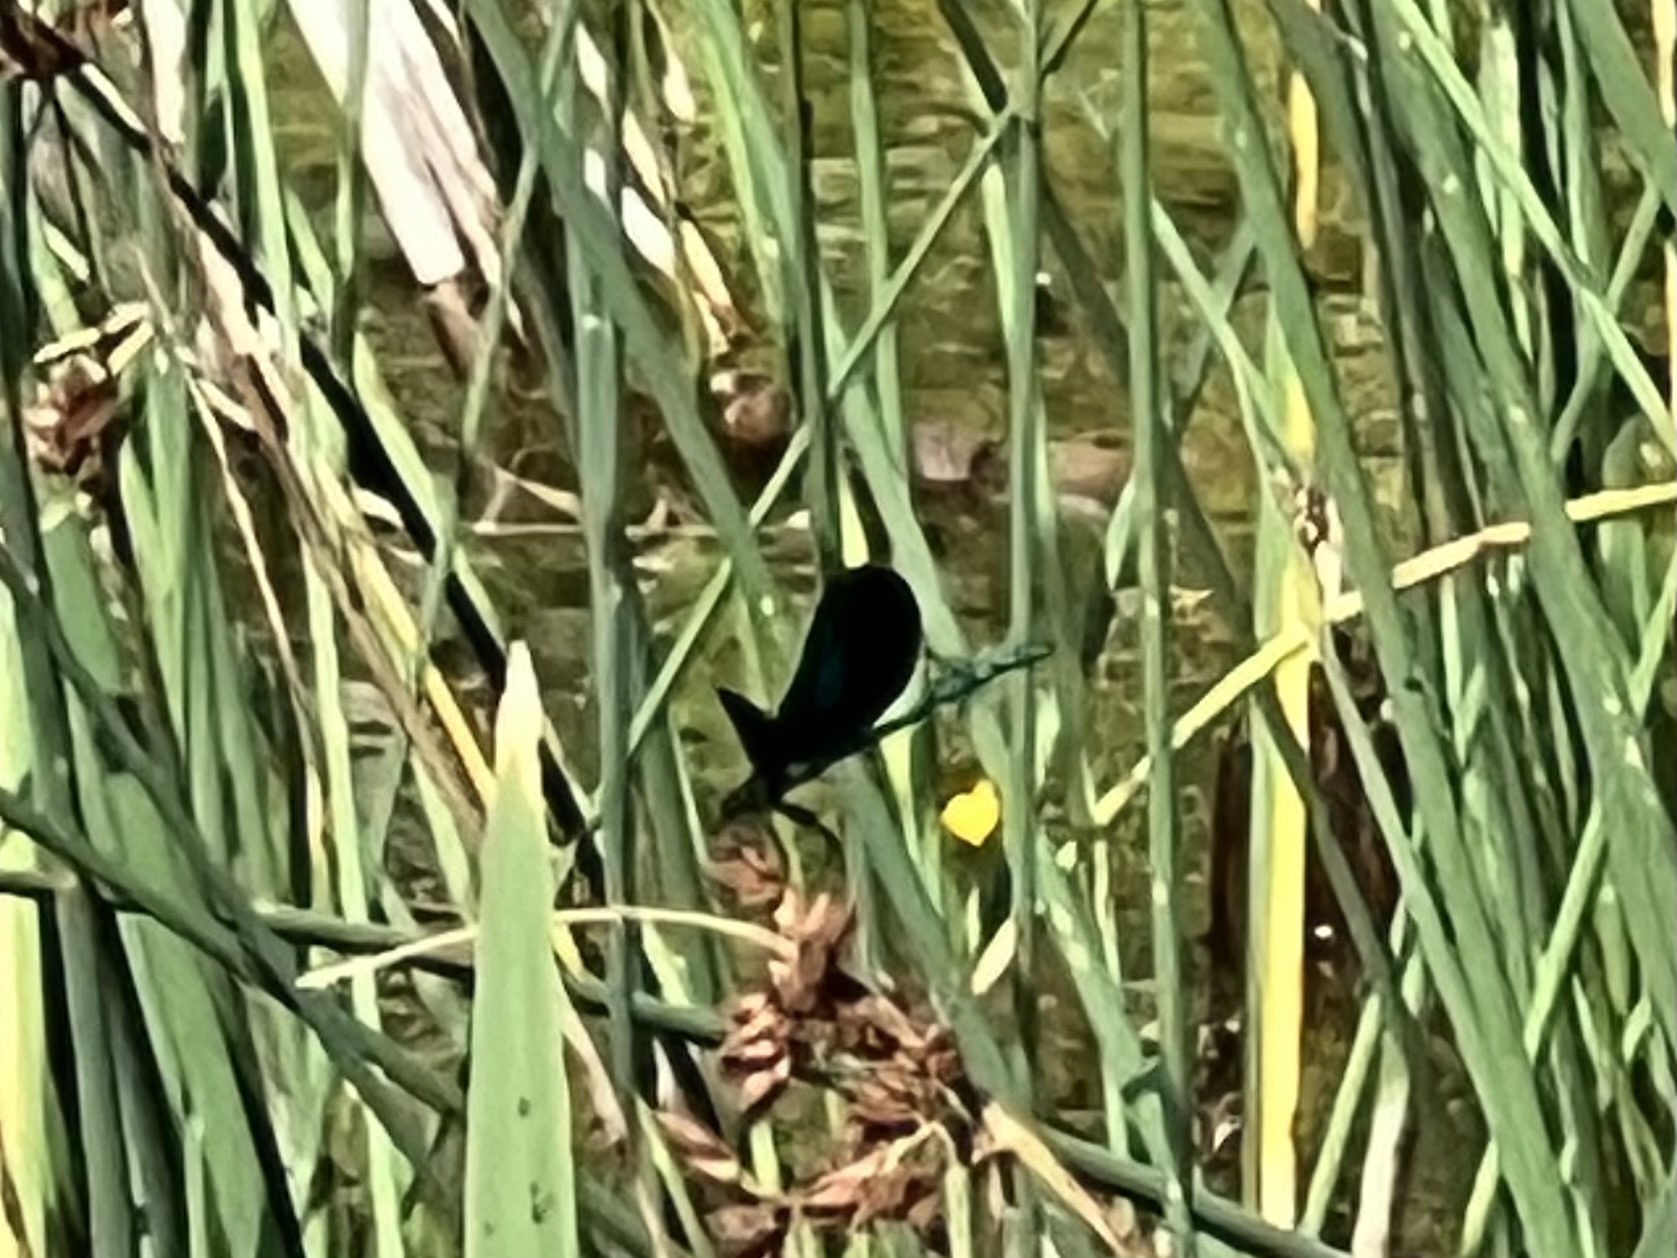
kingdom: Animalia
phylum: Arthropoda
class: Insecta
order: Odonata
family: Calopterygidae
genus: Calopteryx
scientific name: Calopteryx virgo
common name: Beautiful demoiselle
